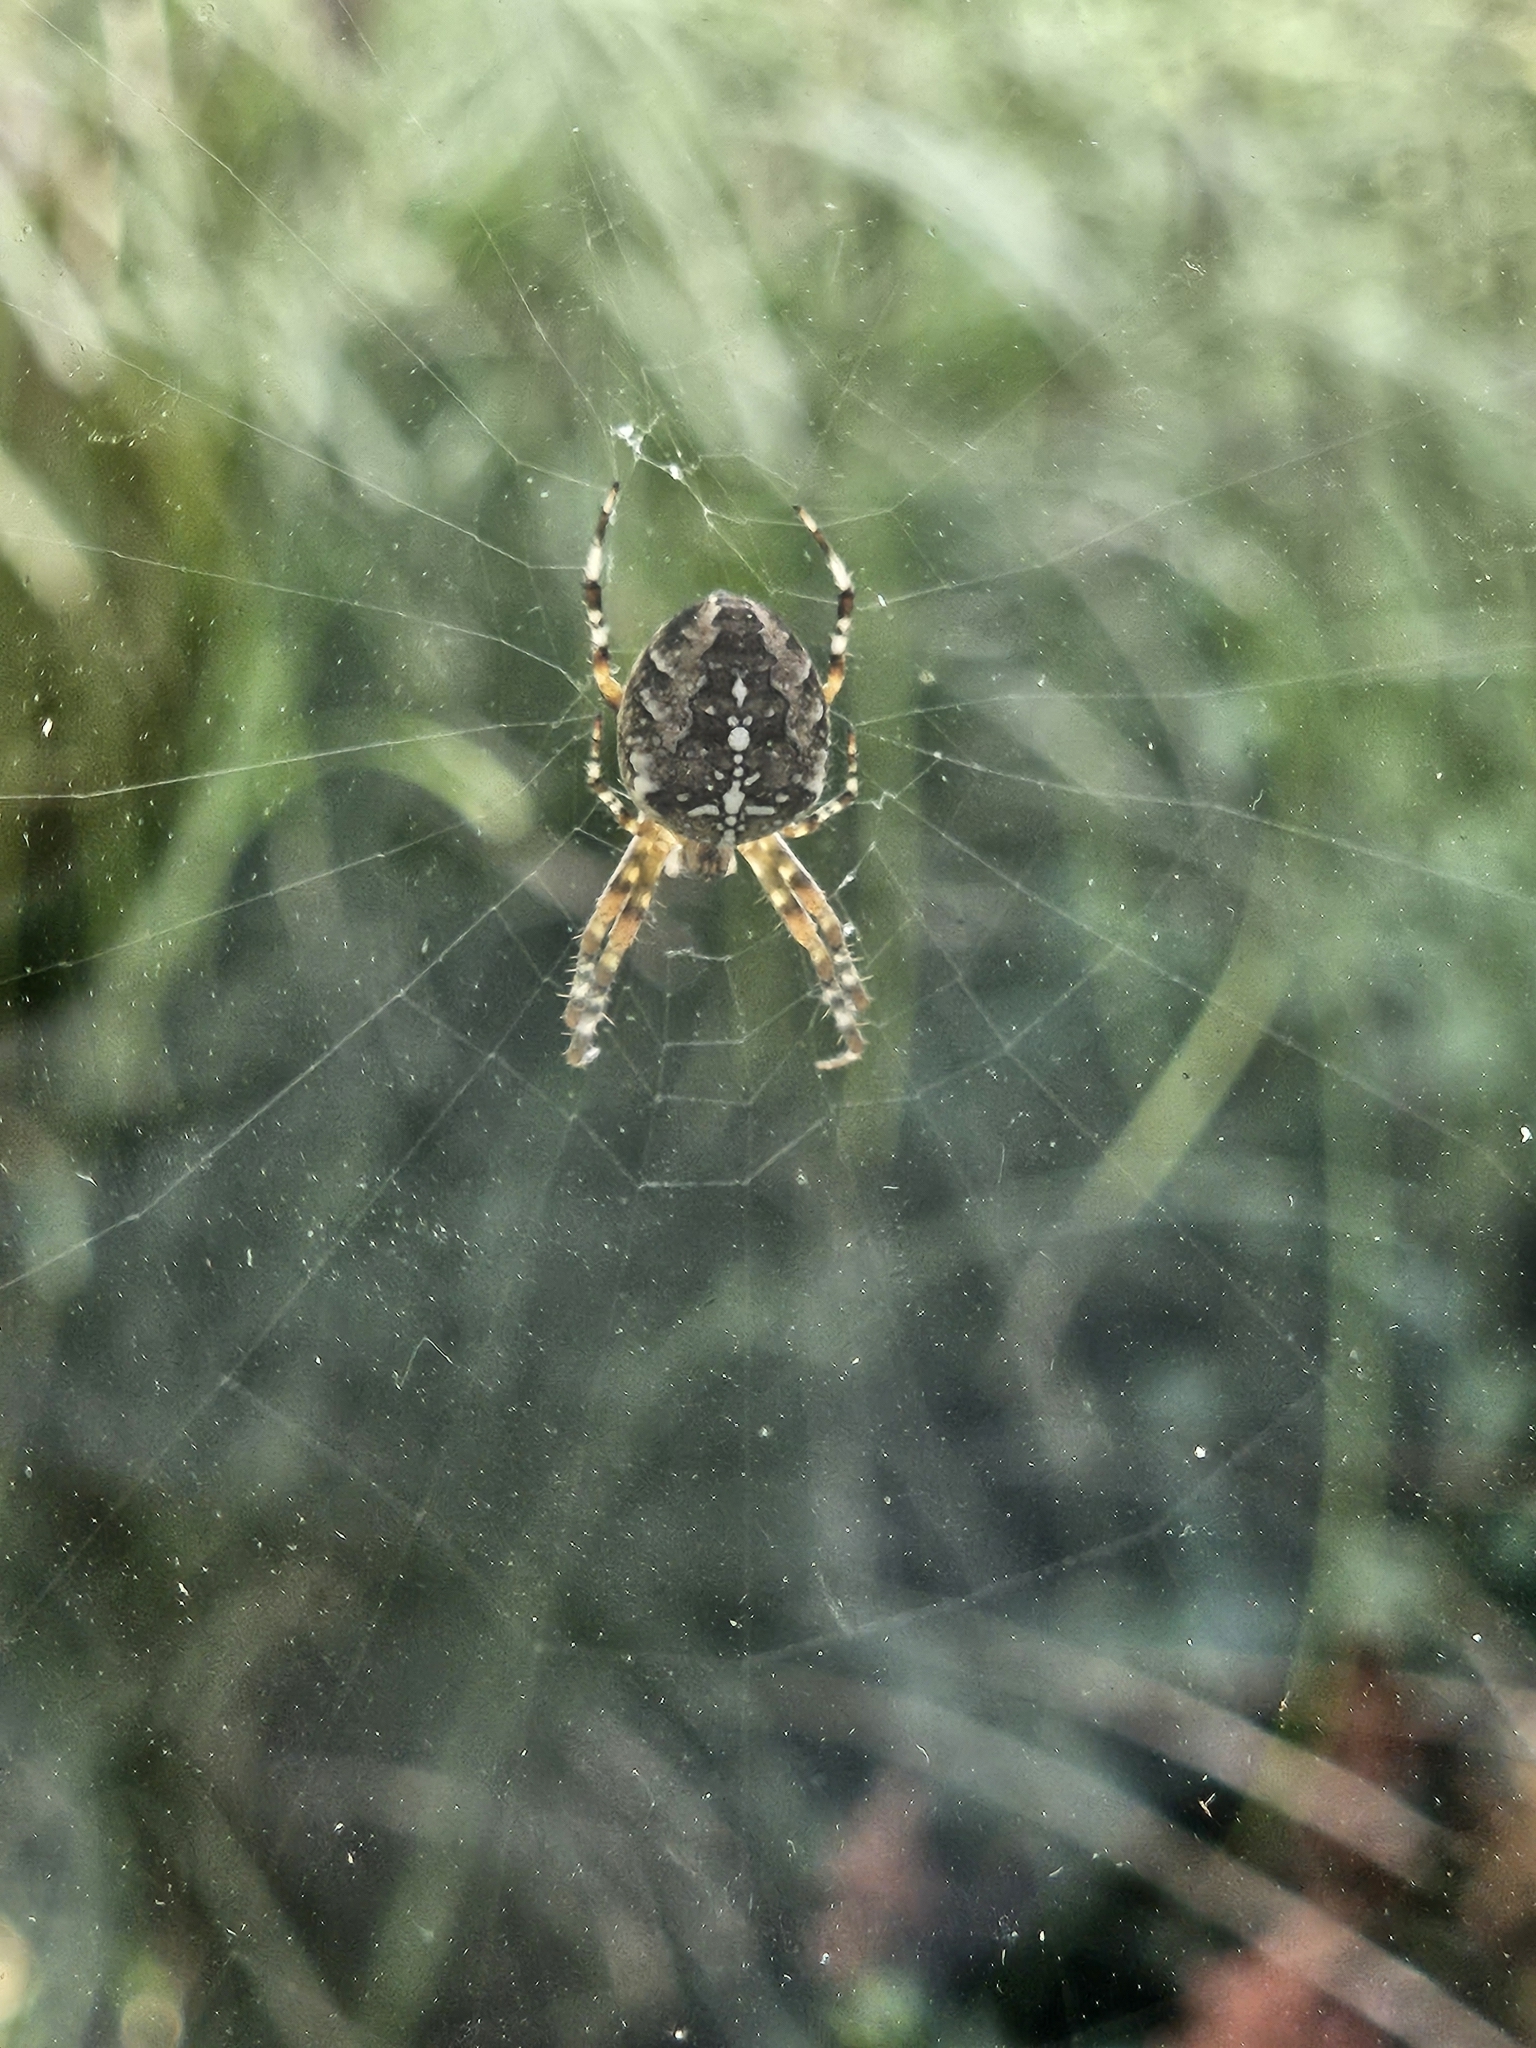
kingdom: Animalia
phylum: Arthropoda
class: Arachnida
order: Araneae
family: Araneidae
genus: Araneus
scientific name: Araneus diadematus
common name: Cross orbweaver
